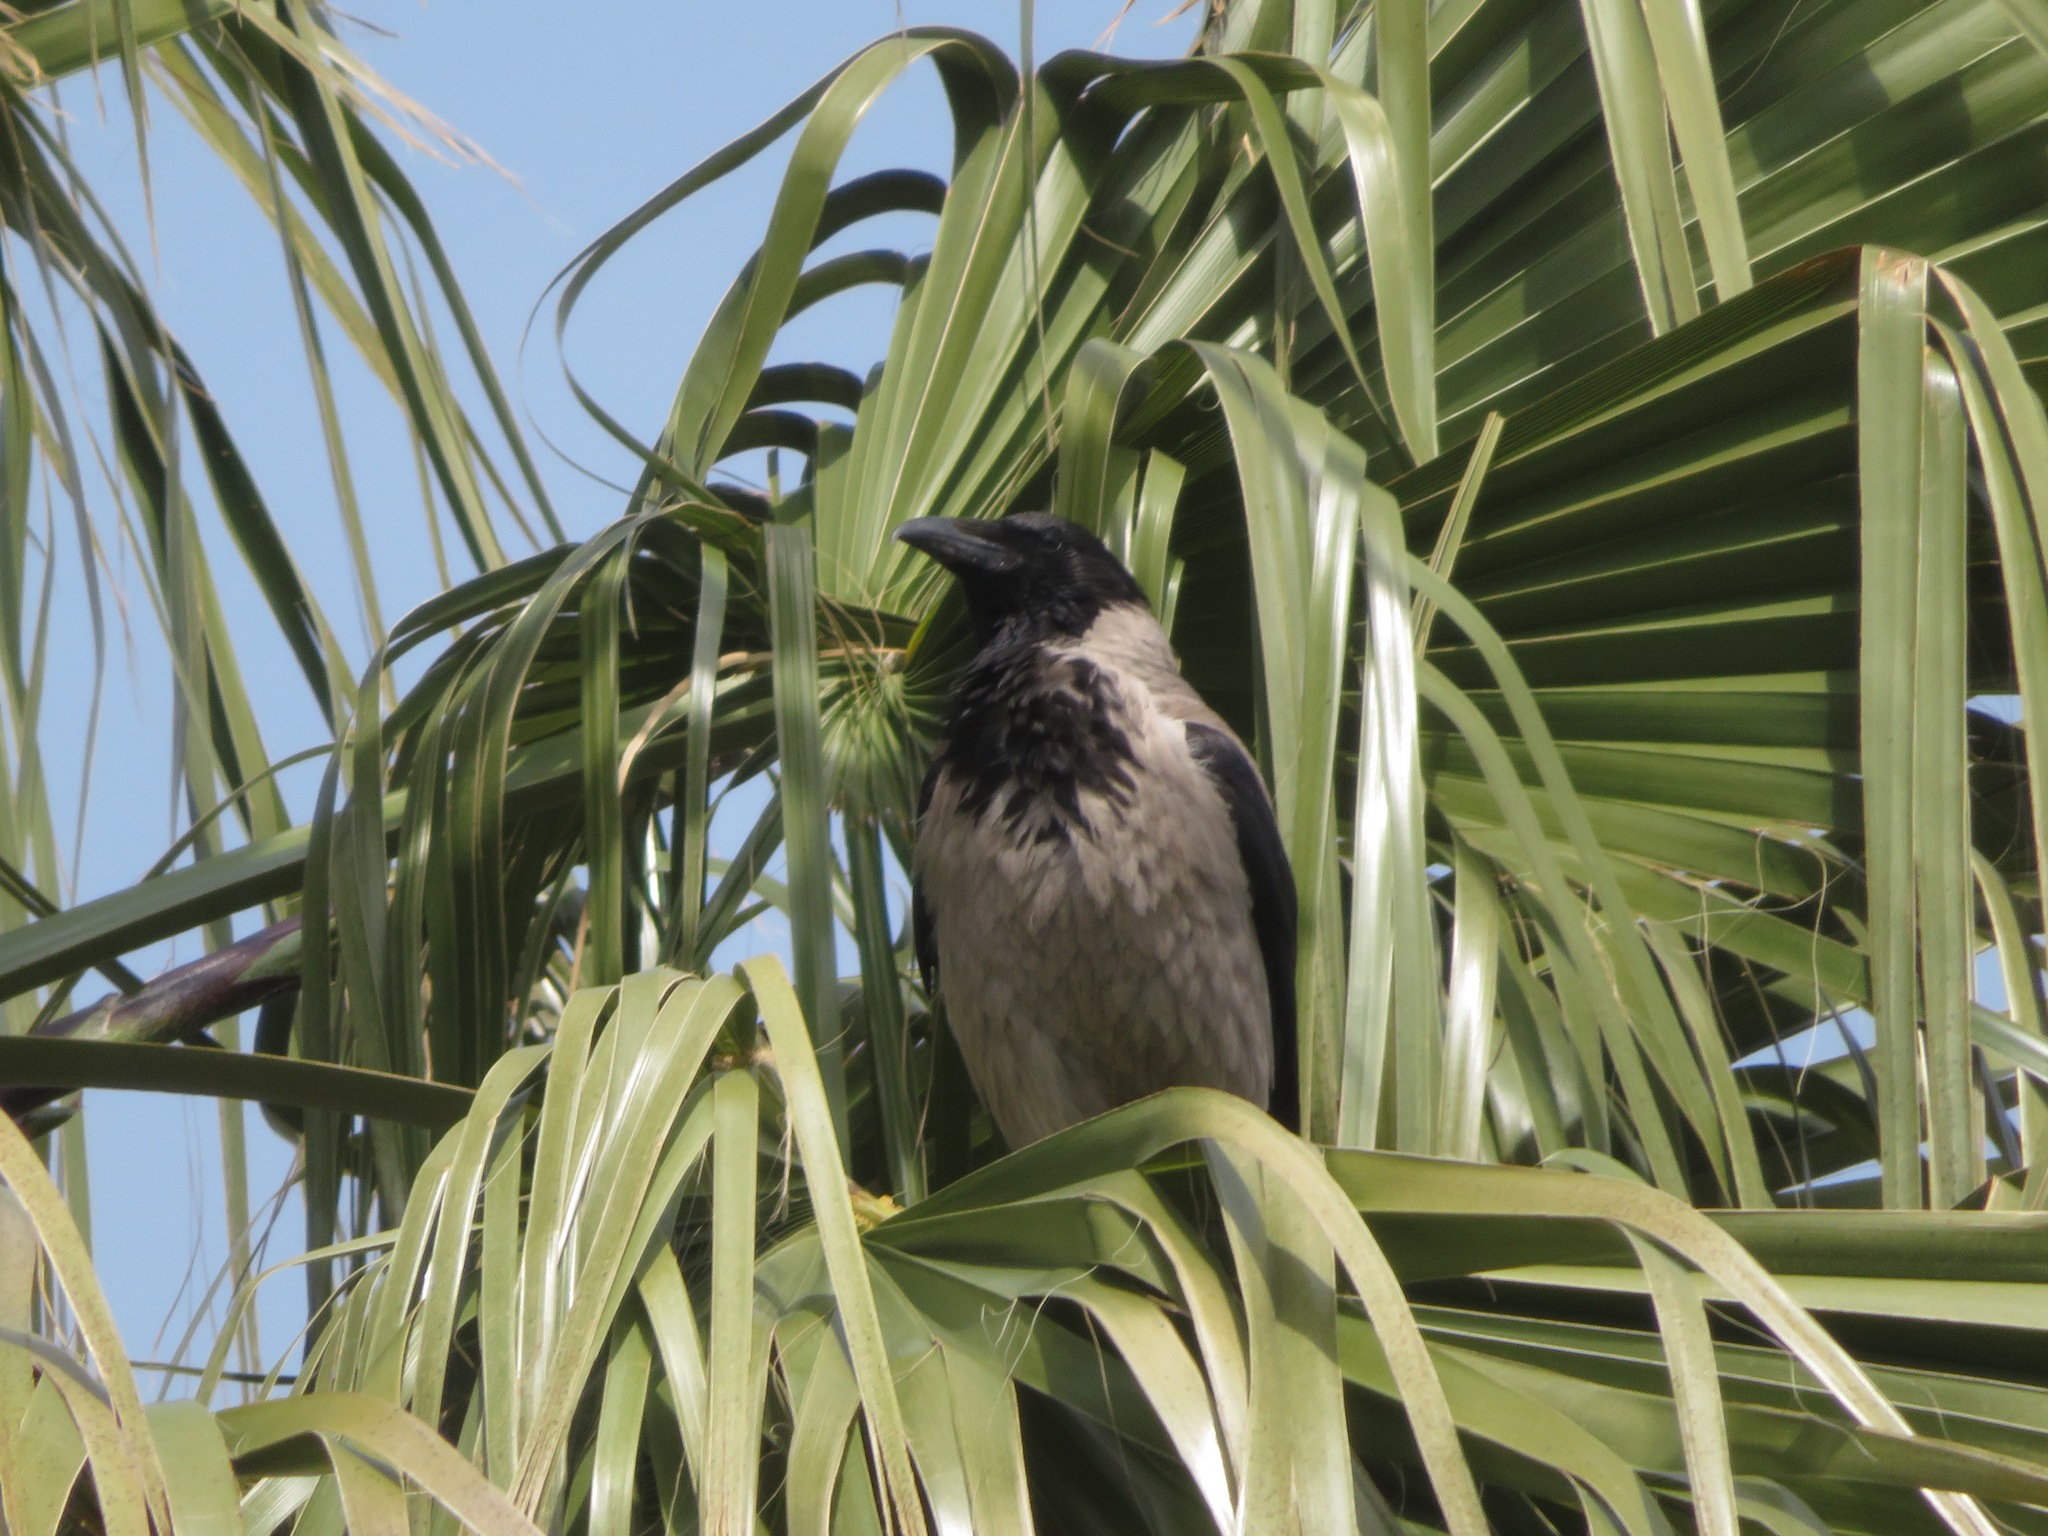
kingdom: Animalia
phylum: Chordata
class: Aves
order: Passeriformes
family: Corvidae
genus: Corvus
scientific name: Corvus cornix
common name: Hooded crow
